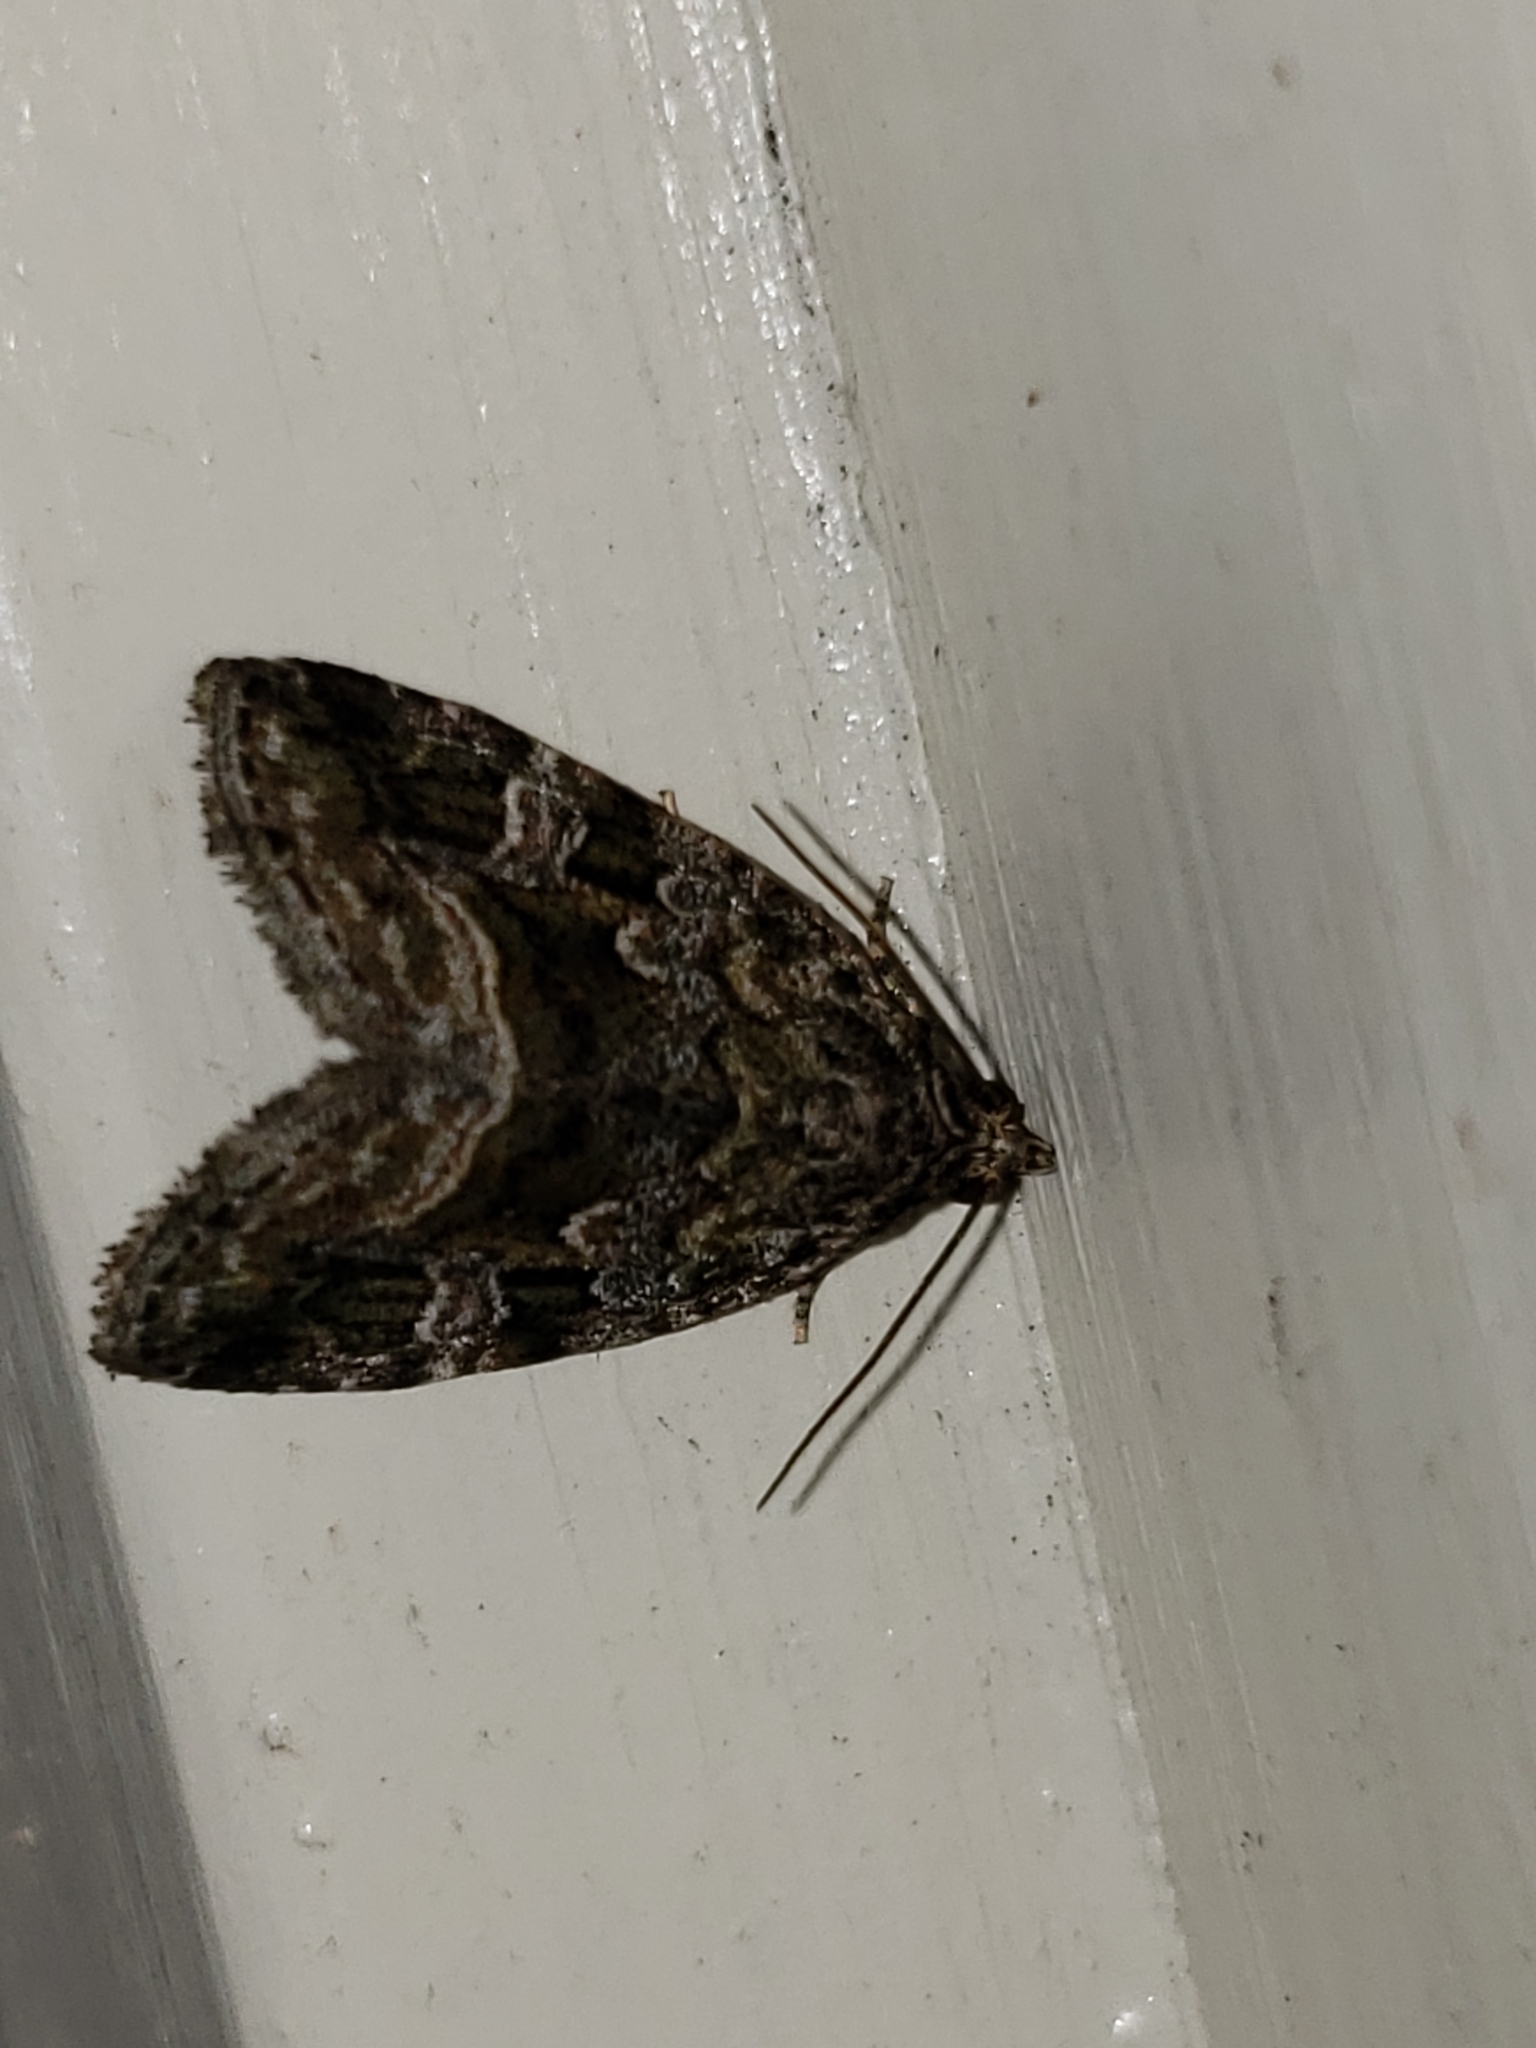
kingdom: Animalia
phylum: Arthropoda
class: Insecta
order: Lepidoptera
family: Noctuidae
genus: Protodeltote
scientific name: Protodeltote muscosula
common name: Large mossy glyph
